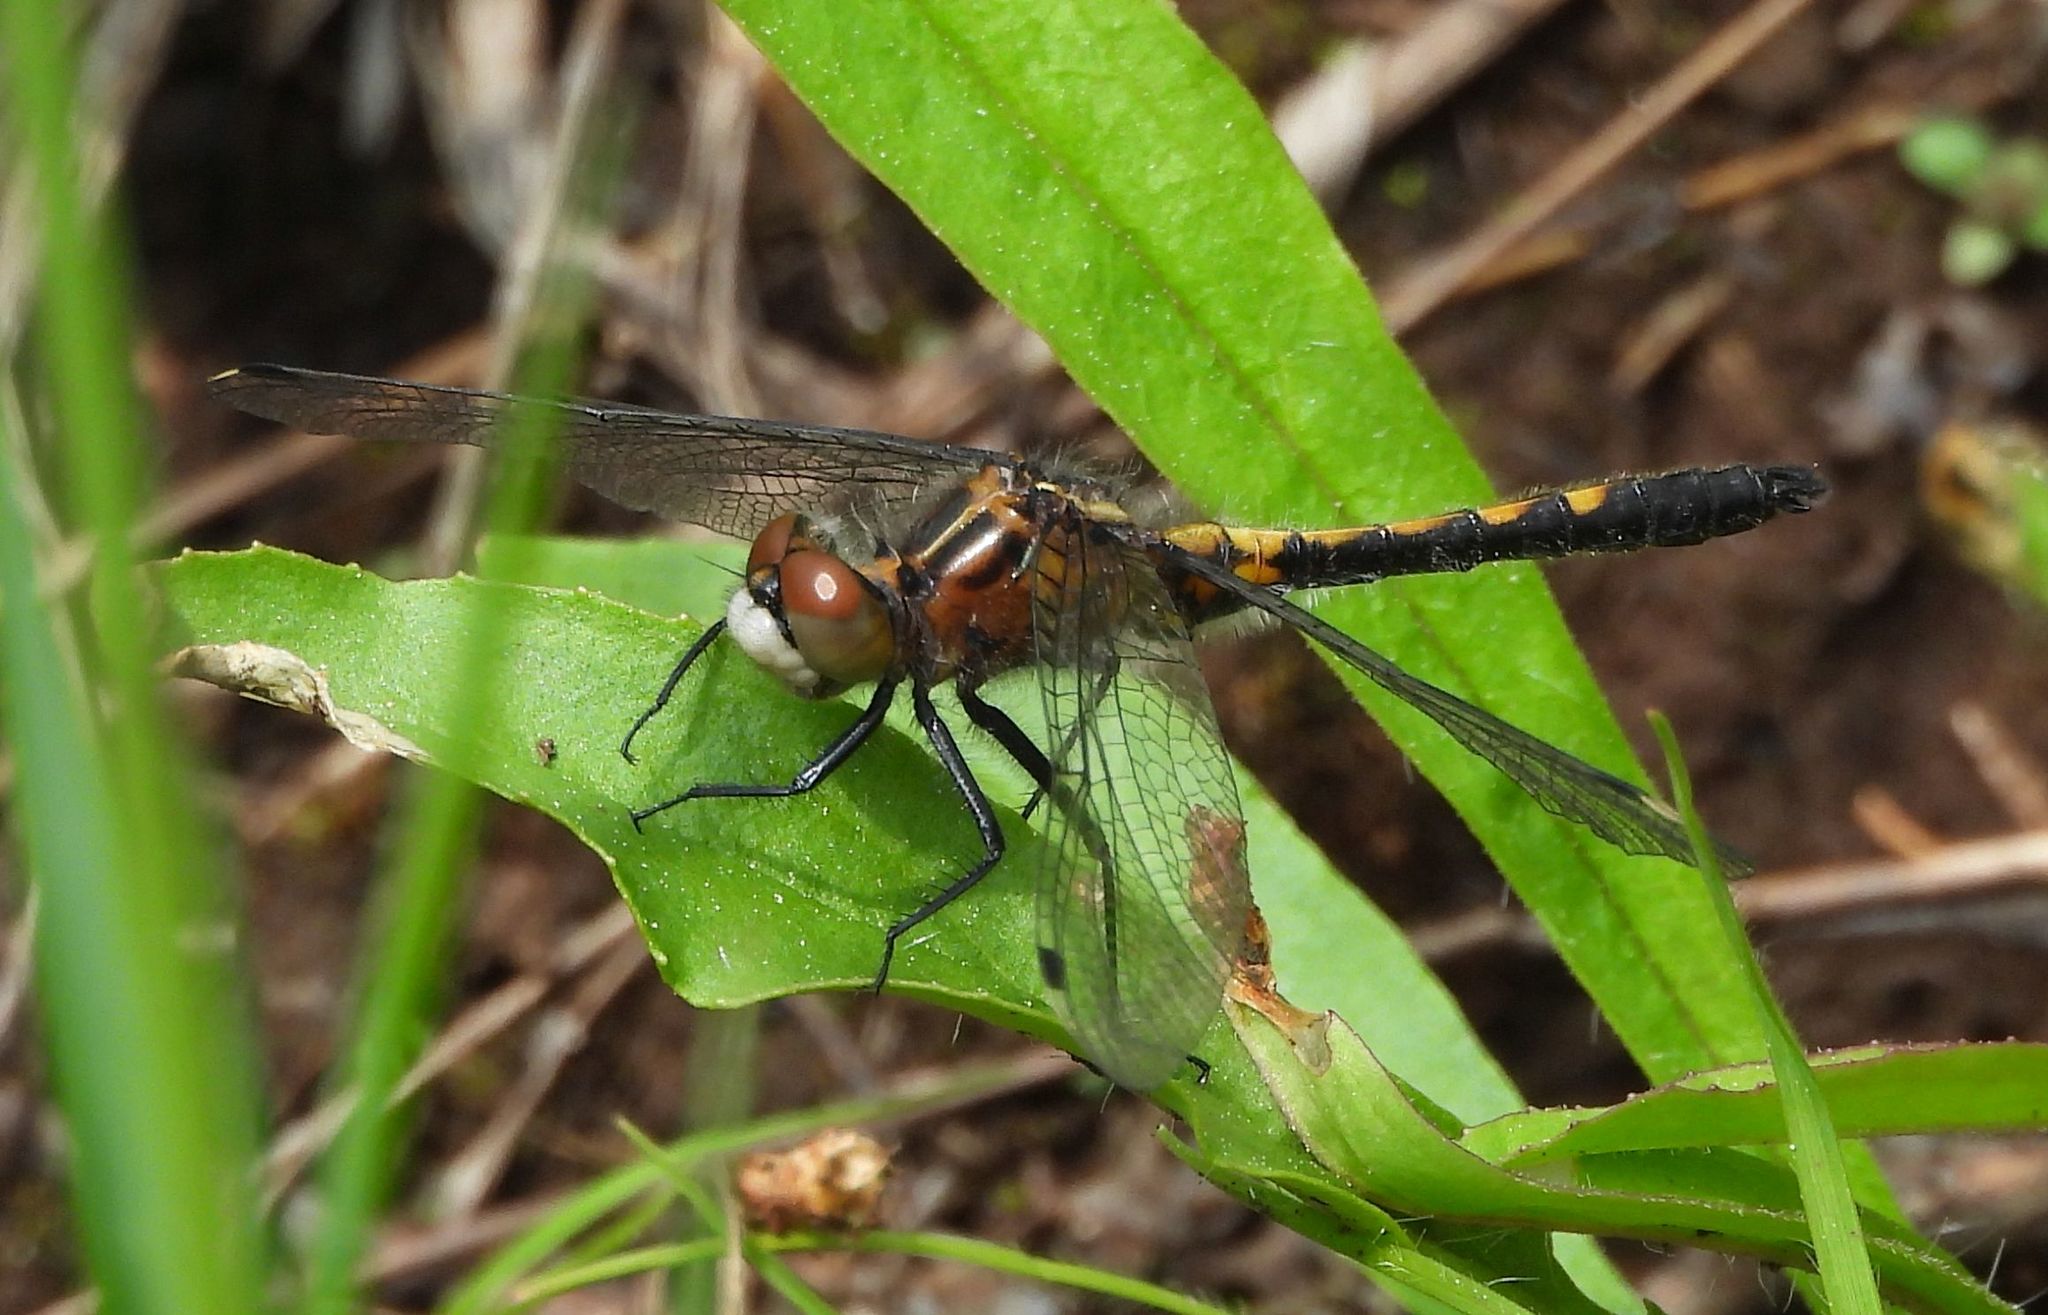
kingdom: Animalia
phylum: Arthropoda
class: Insecta
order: Odonata
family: Libellulidae
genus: Leucorrhinia
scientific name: Leucorrhinia intacta
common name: Dot-tailed whiteface
